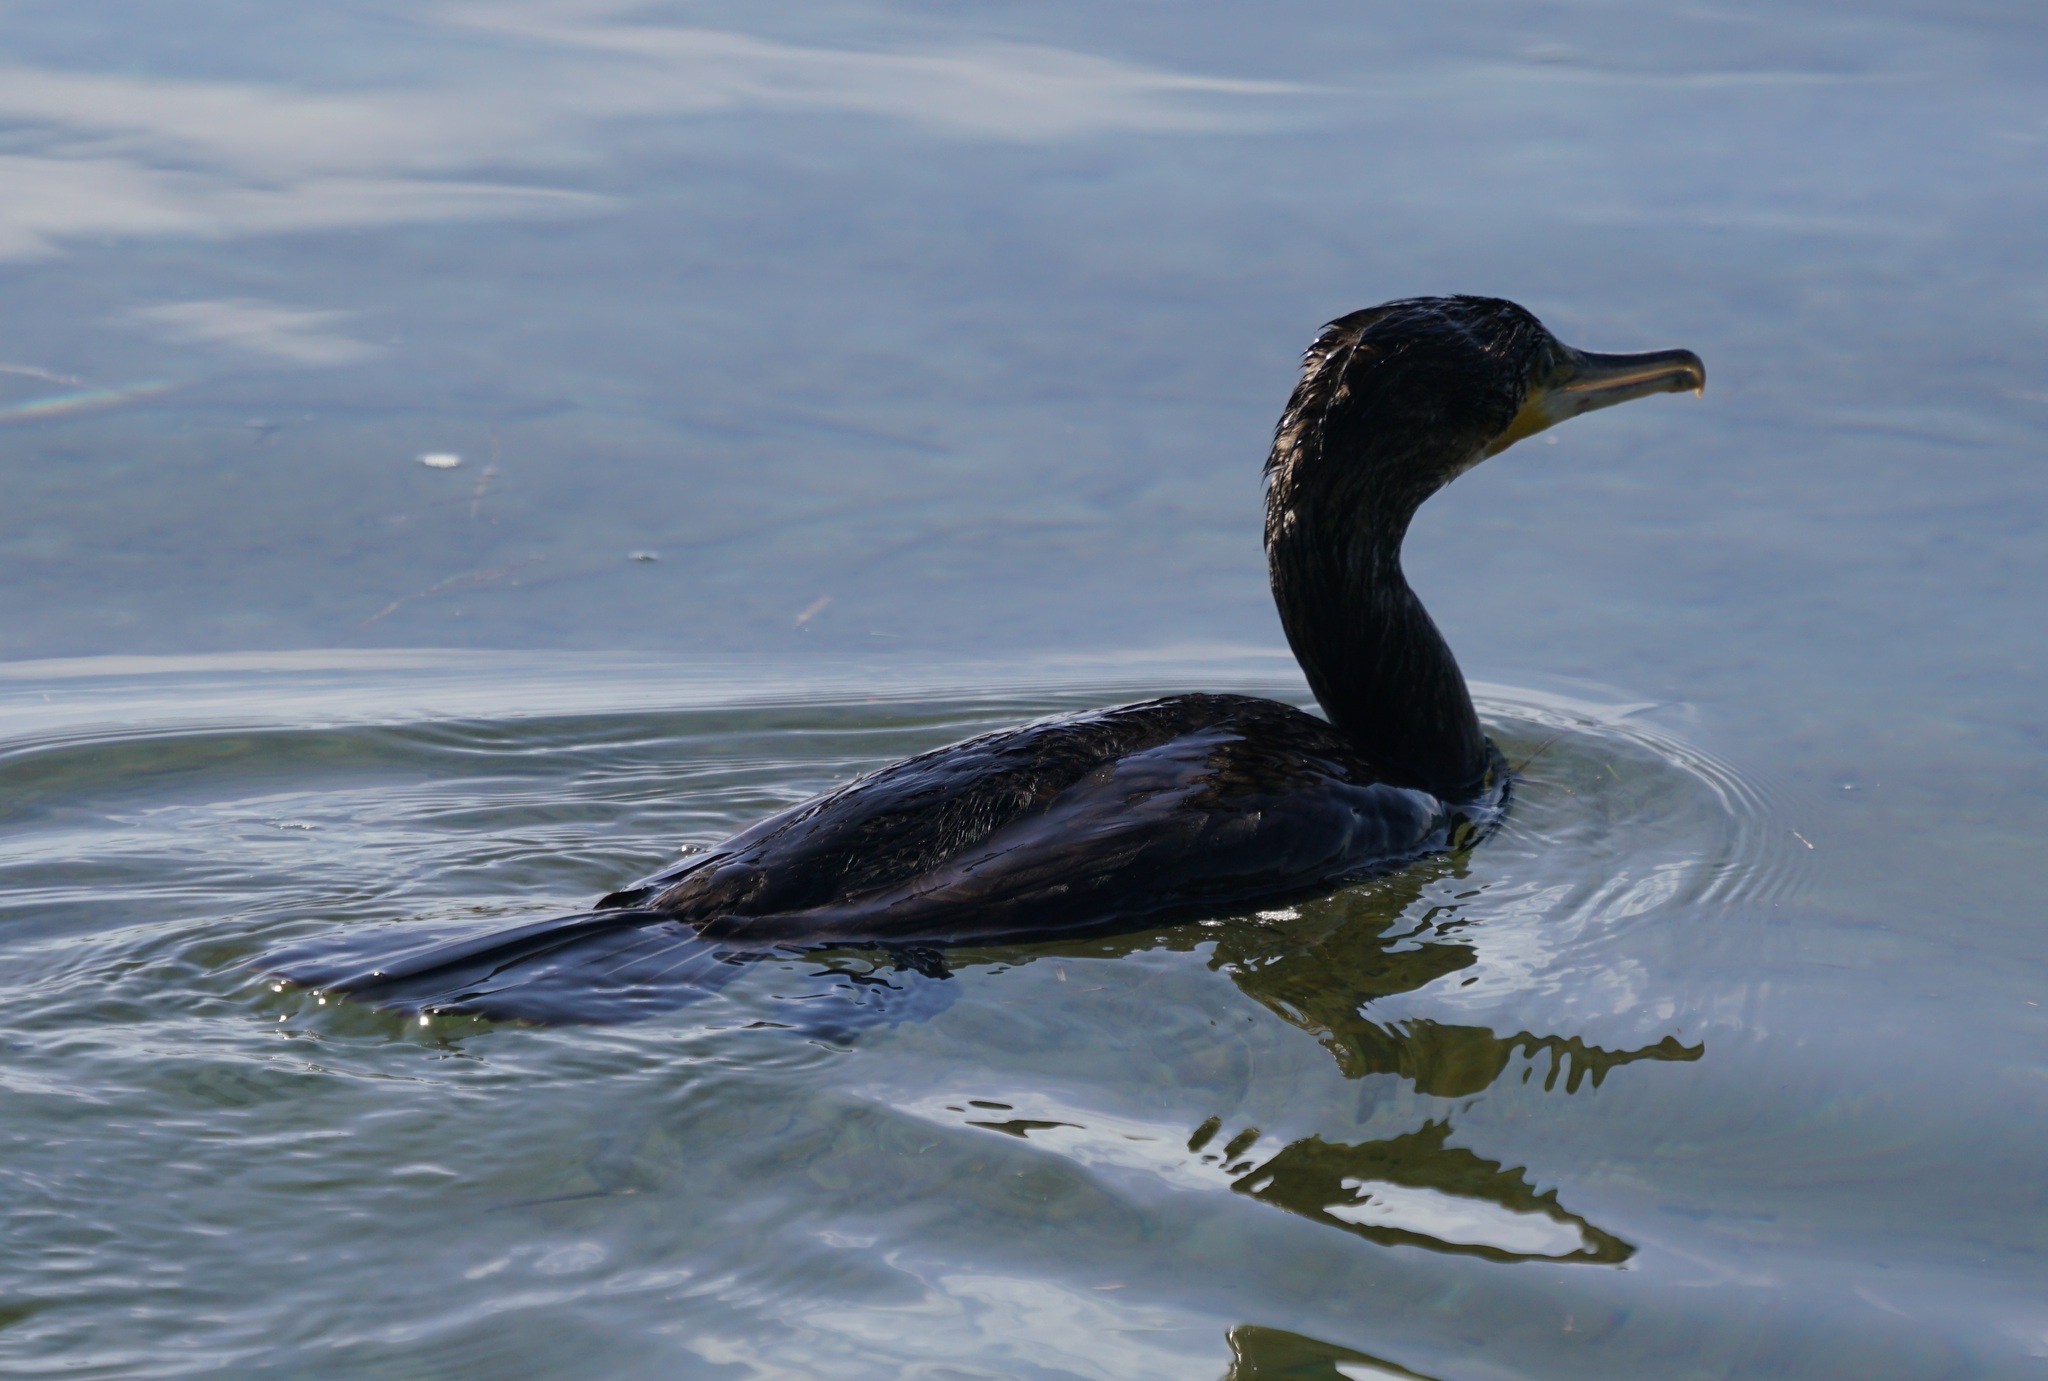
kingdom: Animalia
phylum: Chordata
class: Aves
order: Suliformes
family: Phalacrocoracidae
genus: Phalacrocorax
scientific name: Phalacrocorax carbo
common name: Great cormorant
